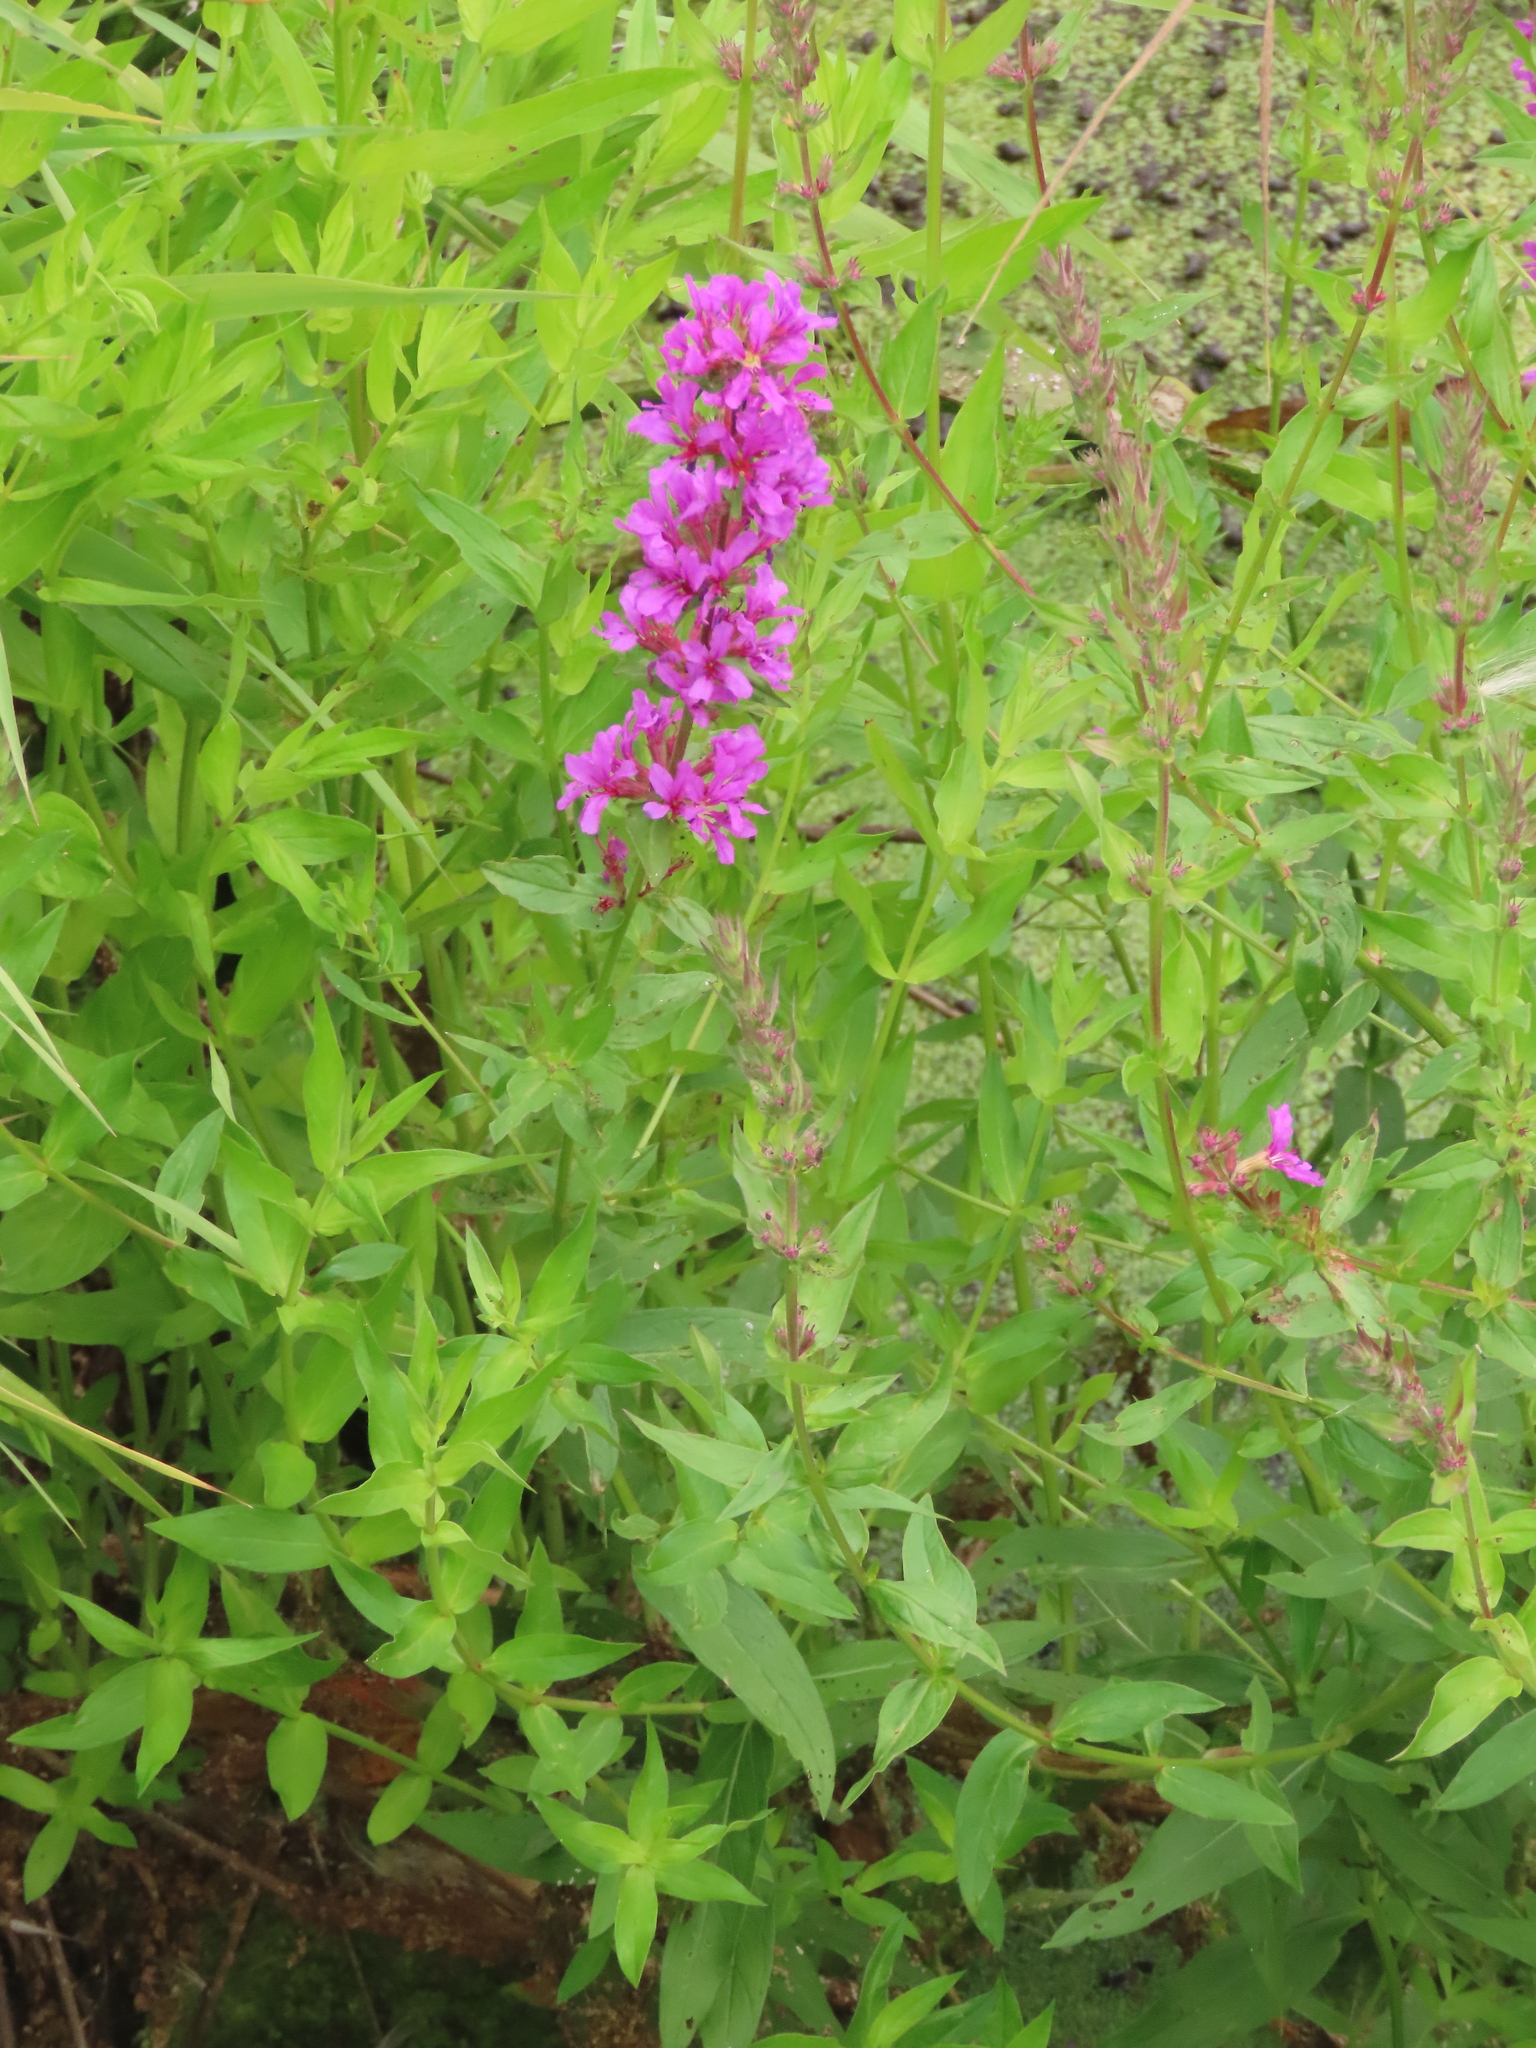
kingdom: Plantae
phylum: Tracheophyta
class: Magnoliopsida
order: Myrtales
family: Lythraceae
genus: Lythrum
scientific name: Lythrum salicaria
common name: Purple loosestrife
